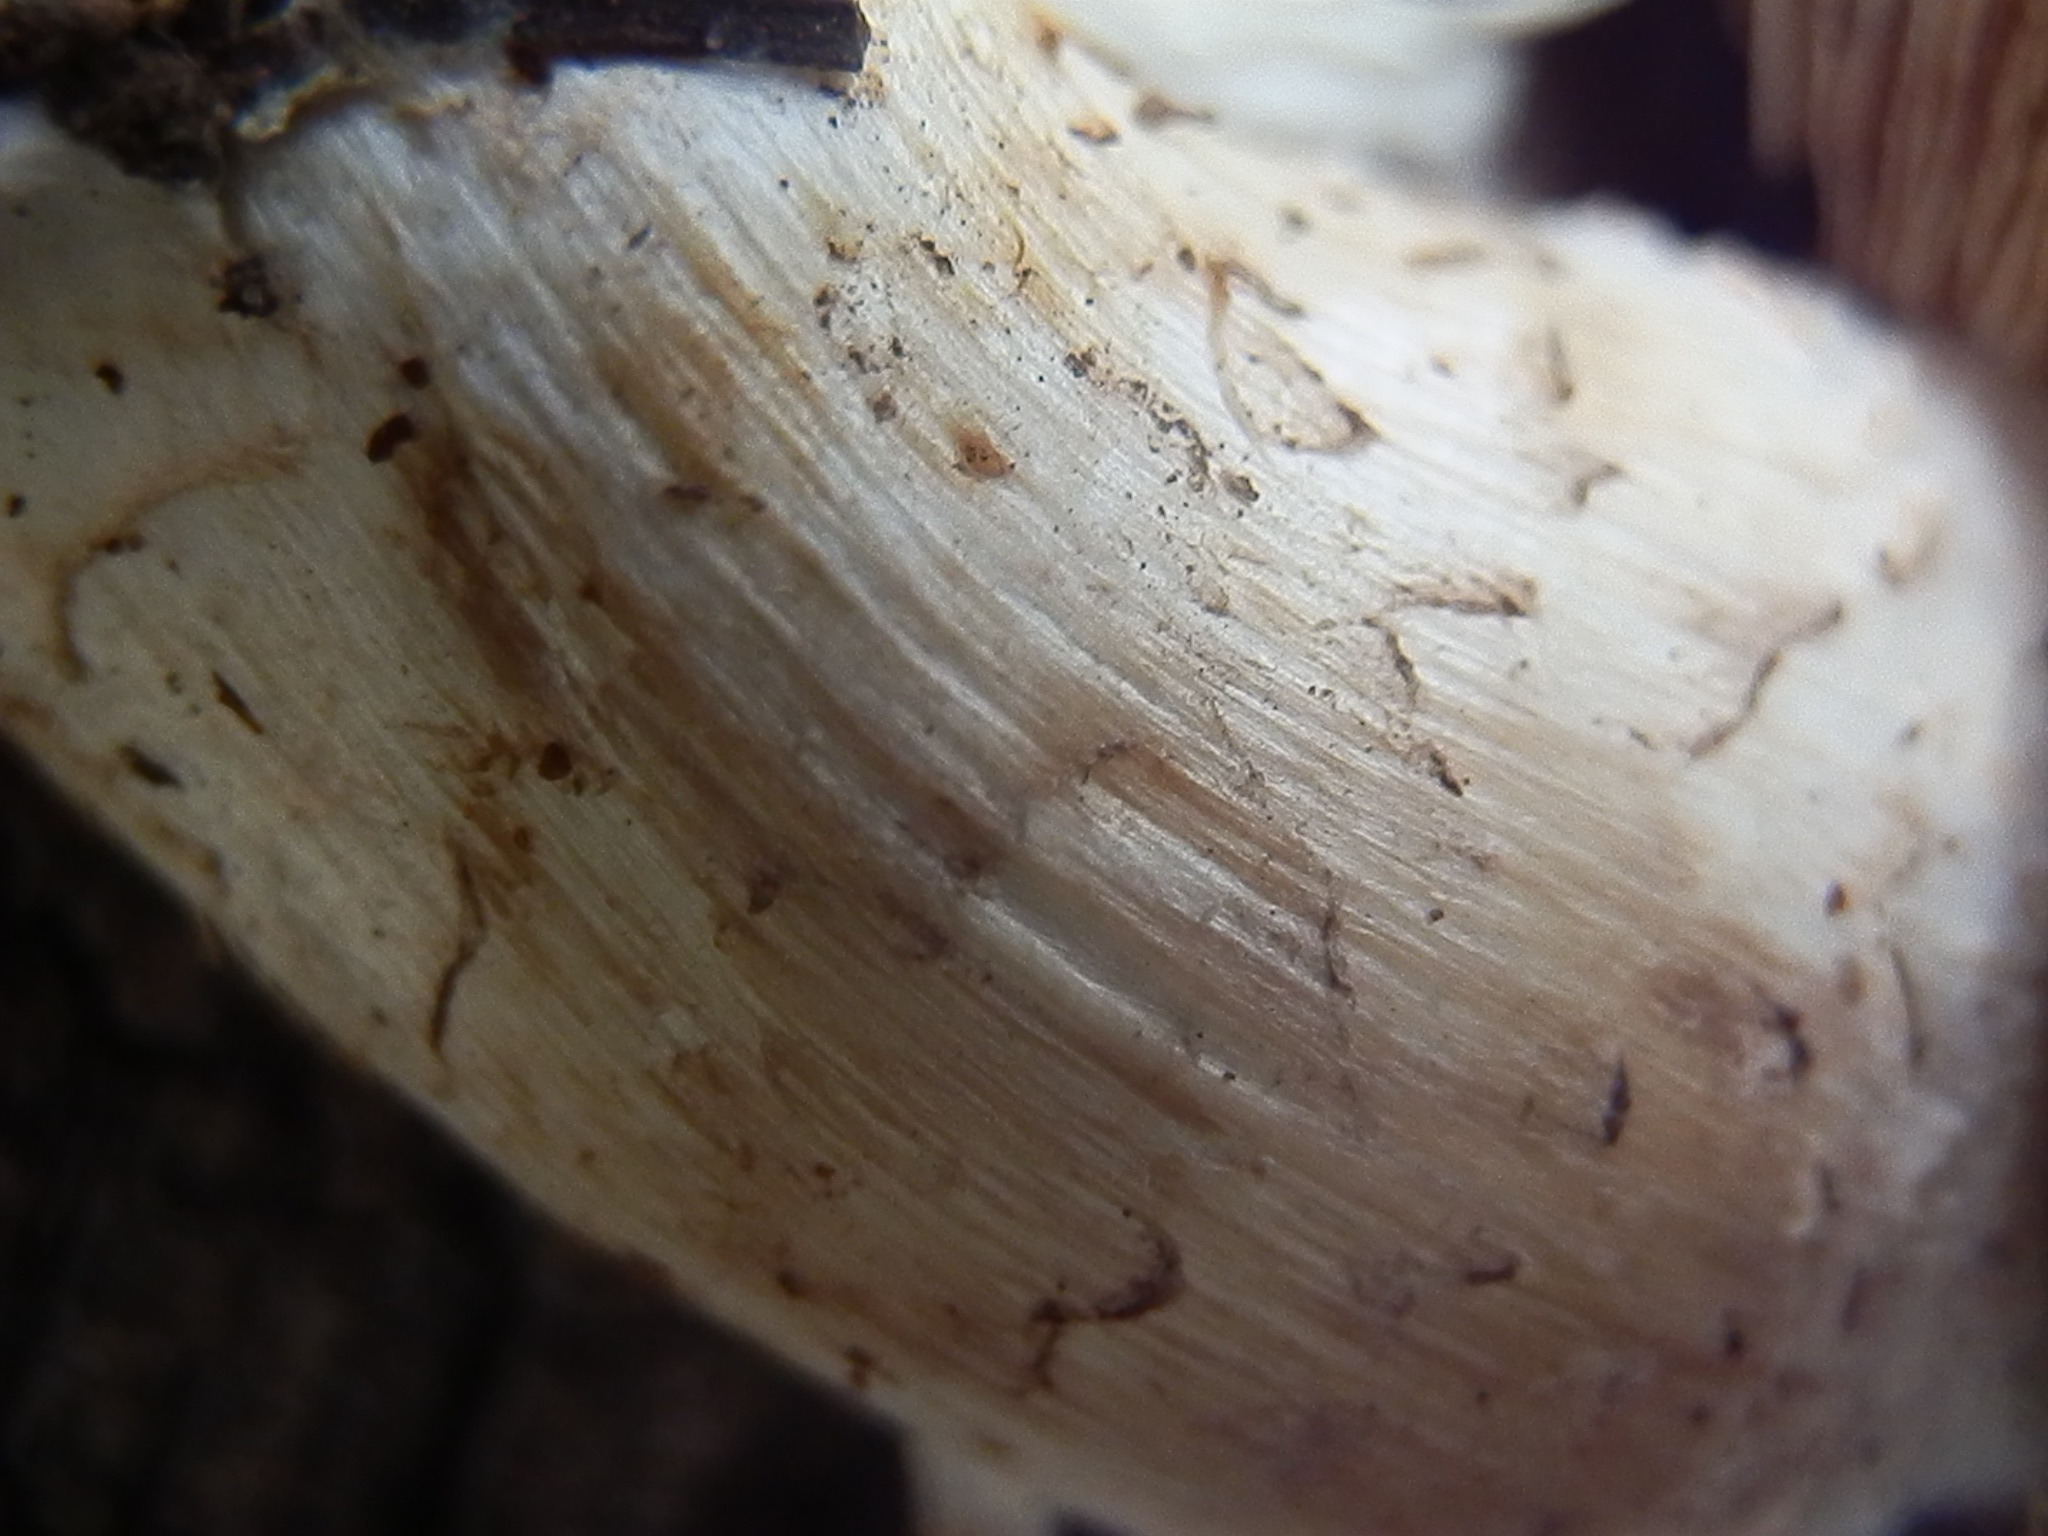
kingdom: Fungi
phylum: Basidiomycota
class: Agaricomycetes
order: Agaricales
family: Hymenogastraceae
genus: Hebeloma
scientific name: Hebeloma albomarginatum
